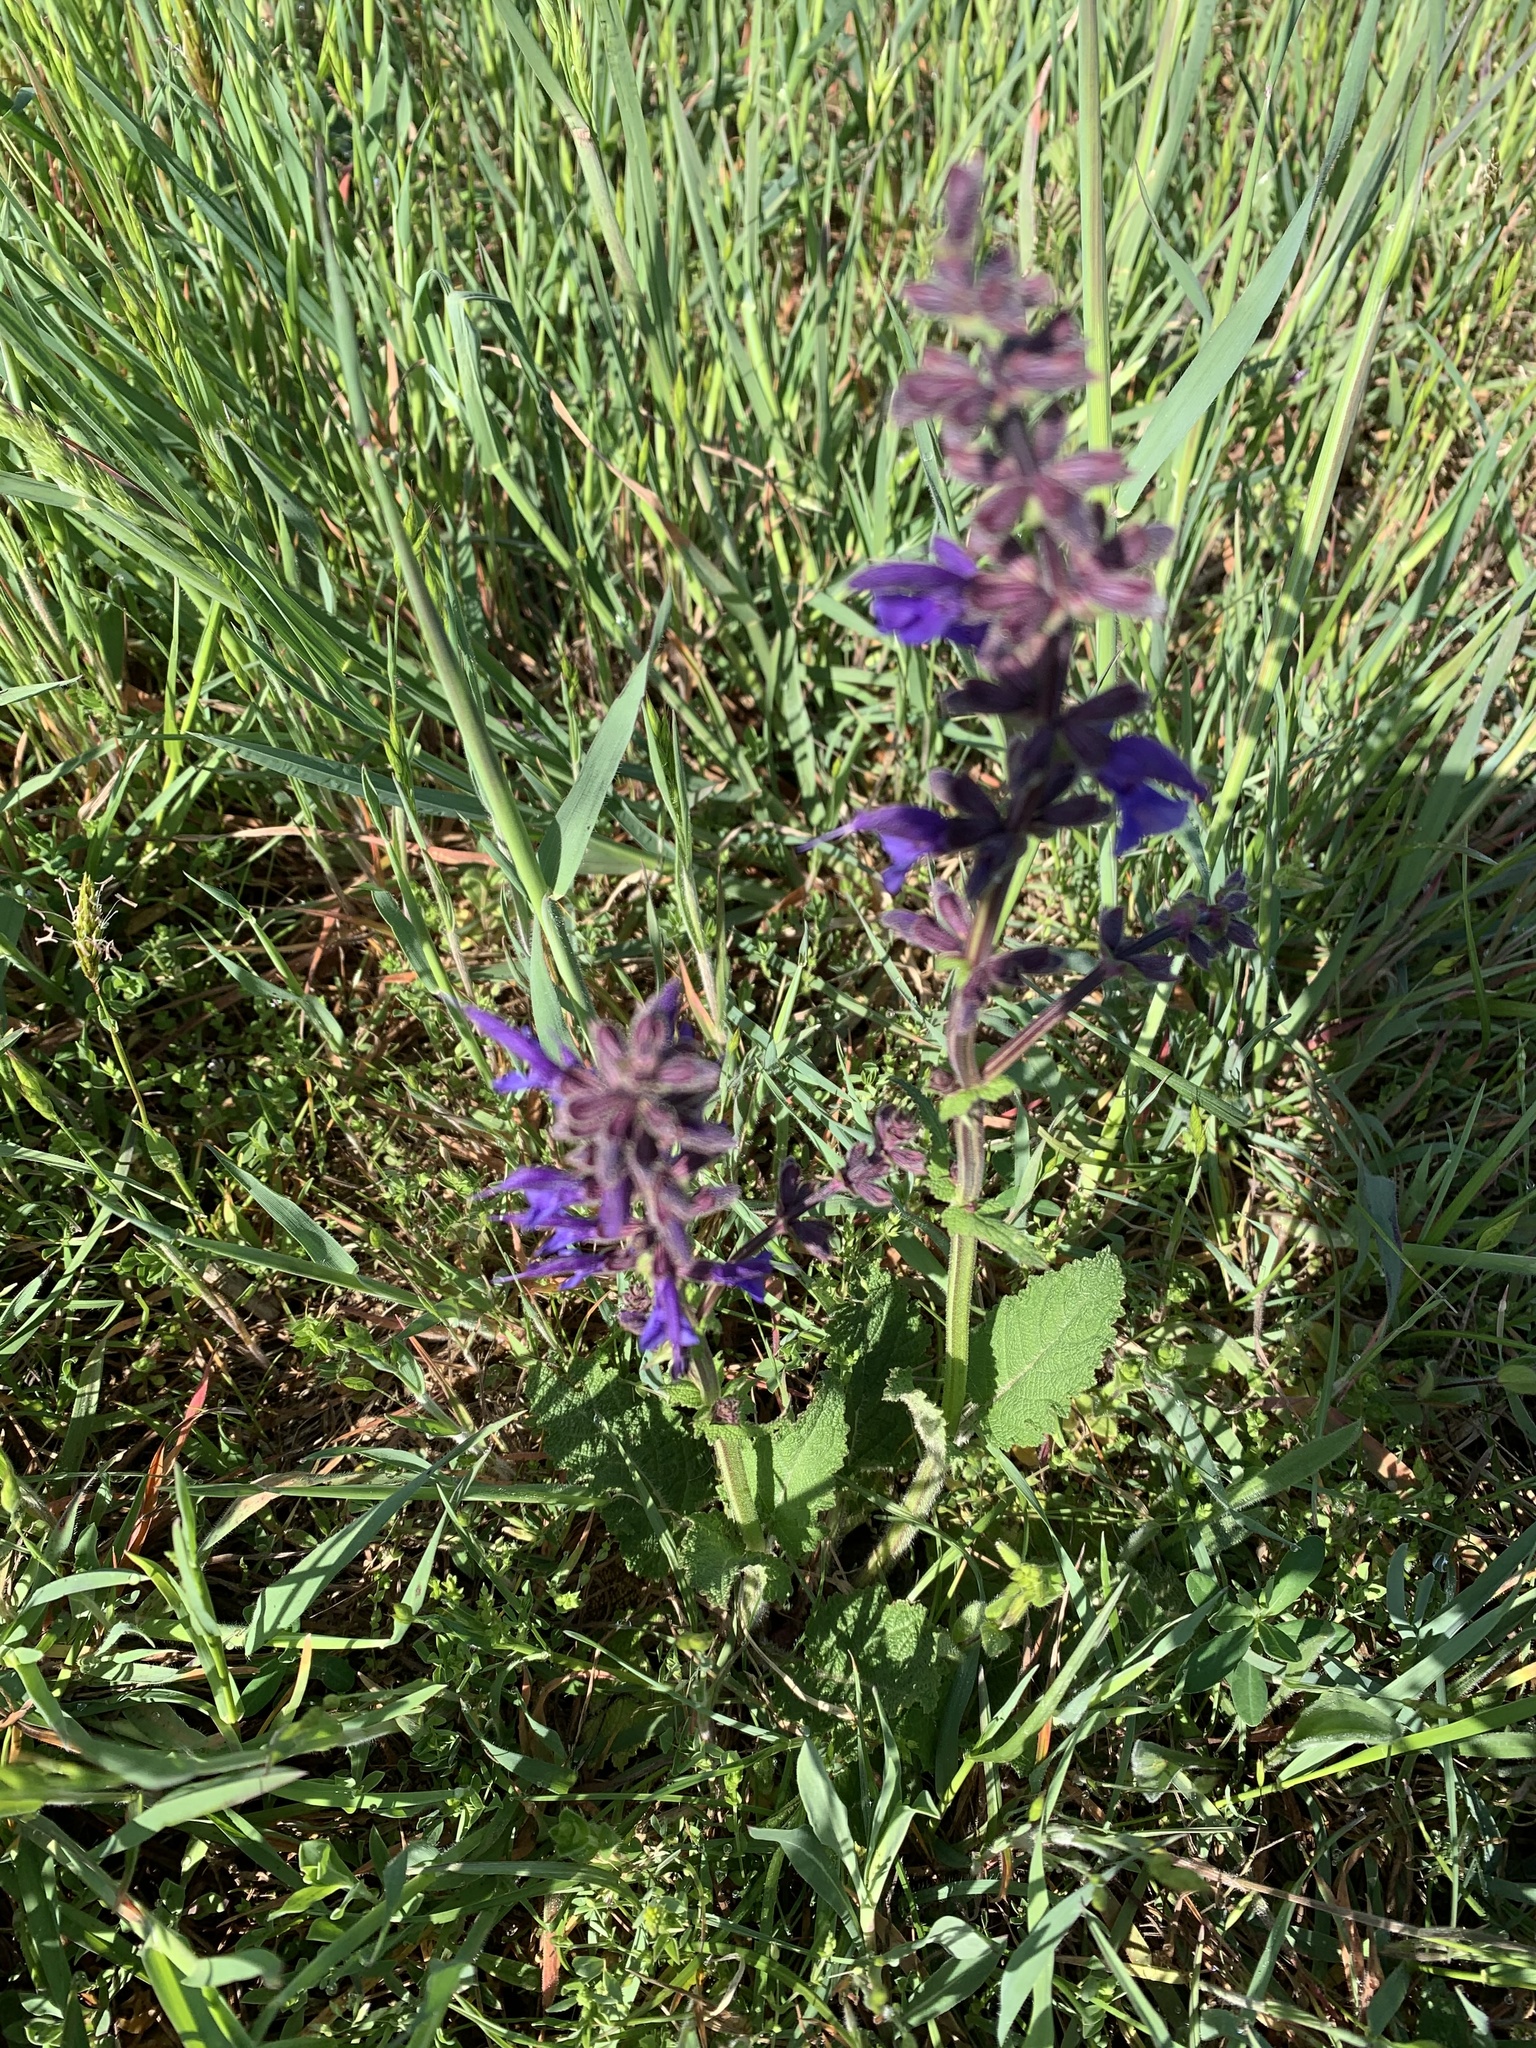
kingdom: Plantae
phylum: Tracheophyta
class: Magnoliopsida
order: Lamiales
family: Lamiaceae
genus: Salvia
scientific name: Salvia pratensis
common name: Meadow sage
